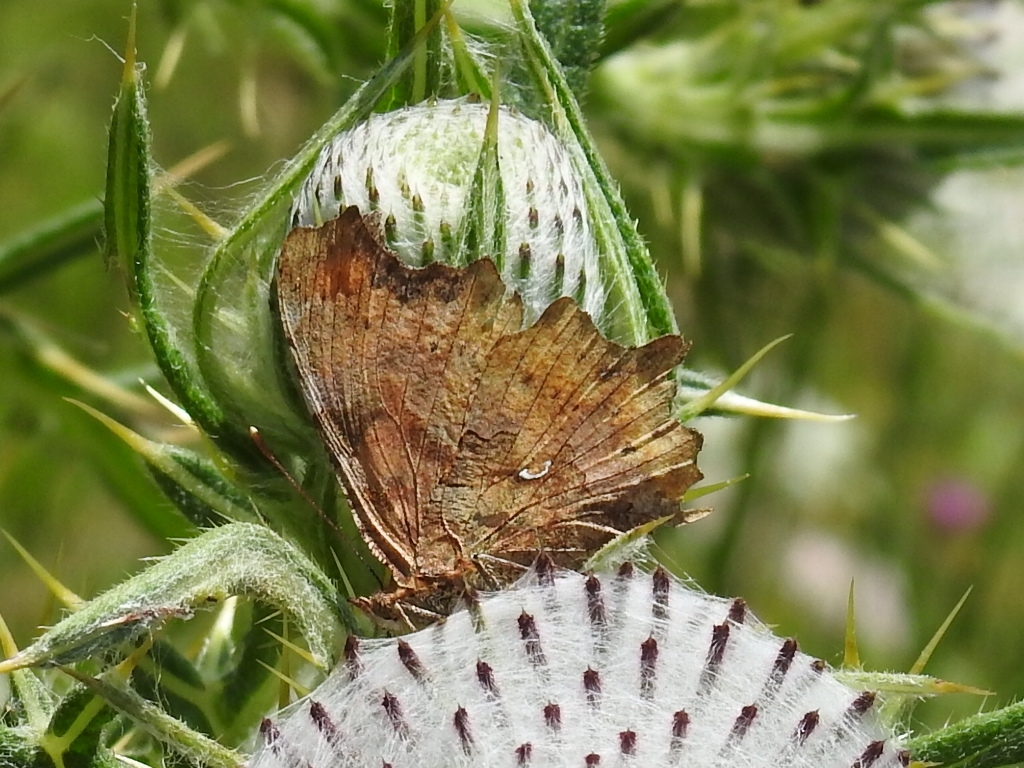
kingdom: Animalia
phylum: Arthropoda
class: Insecta
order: Lepidoptera
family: Nymphalidae
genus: Polygonia
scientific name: Polygonia c-album
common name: Comma
